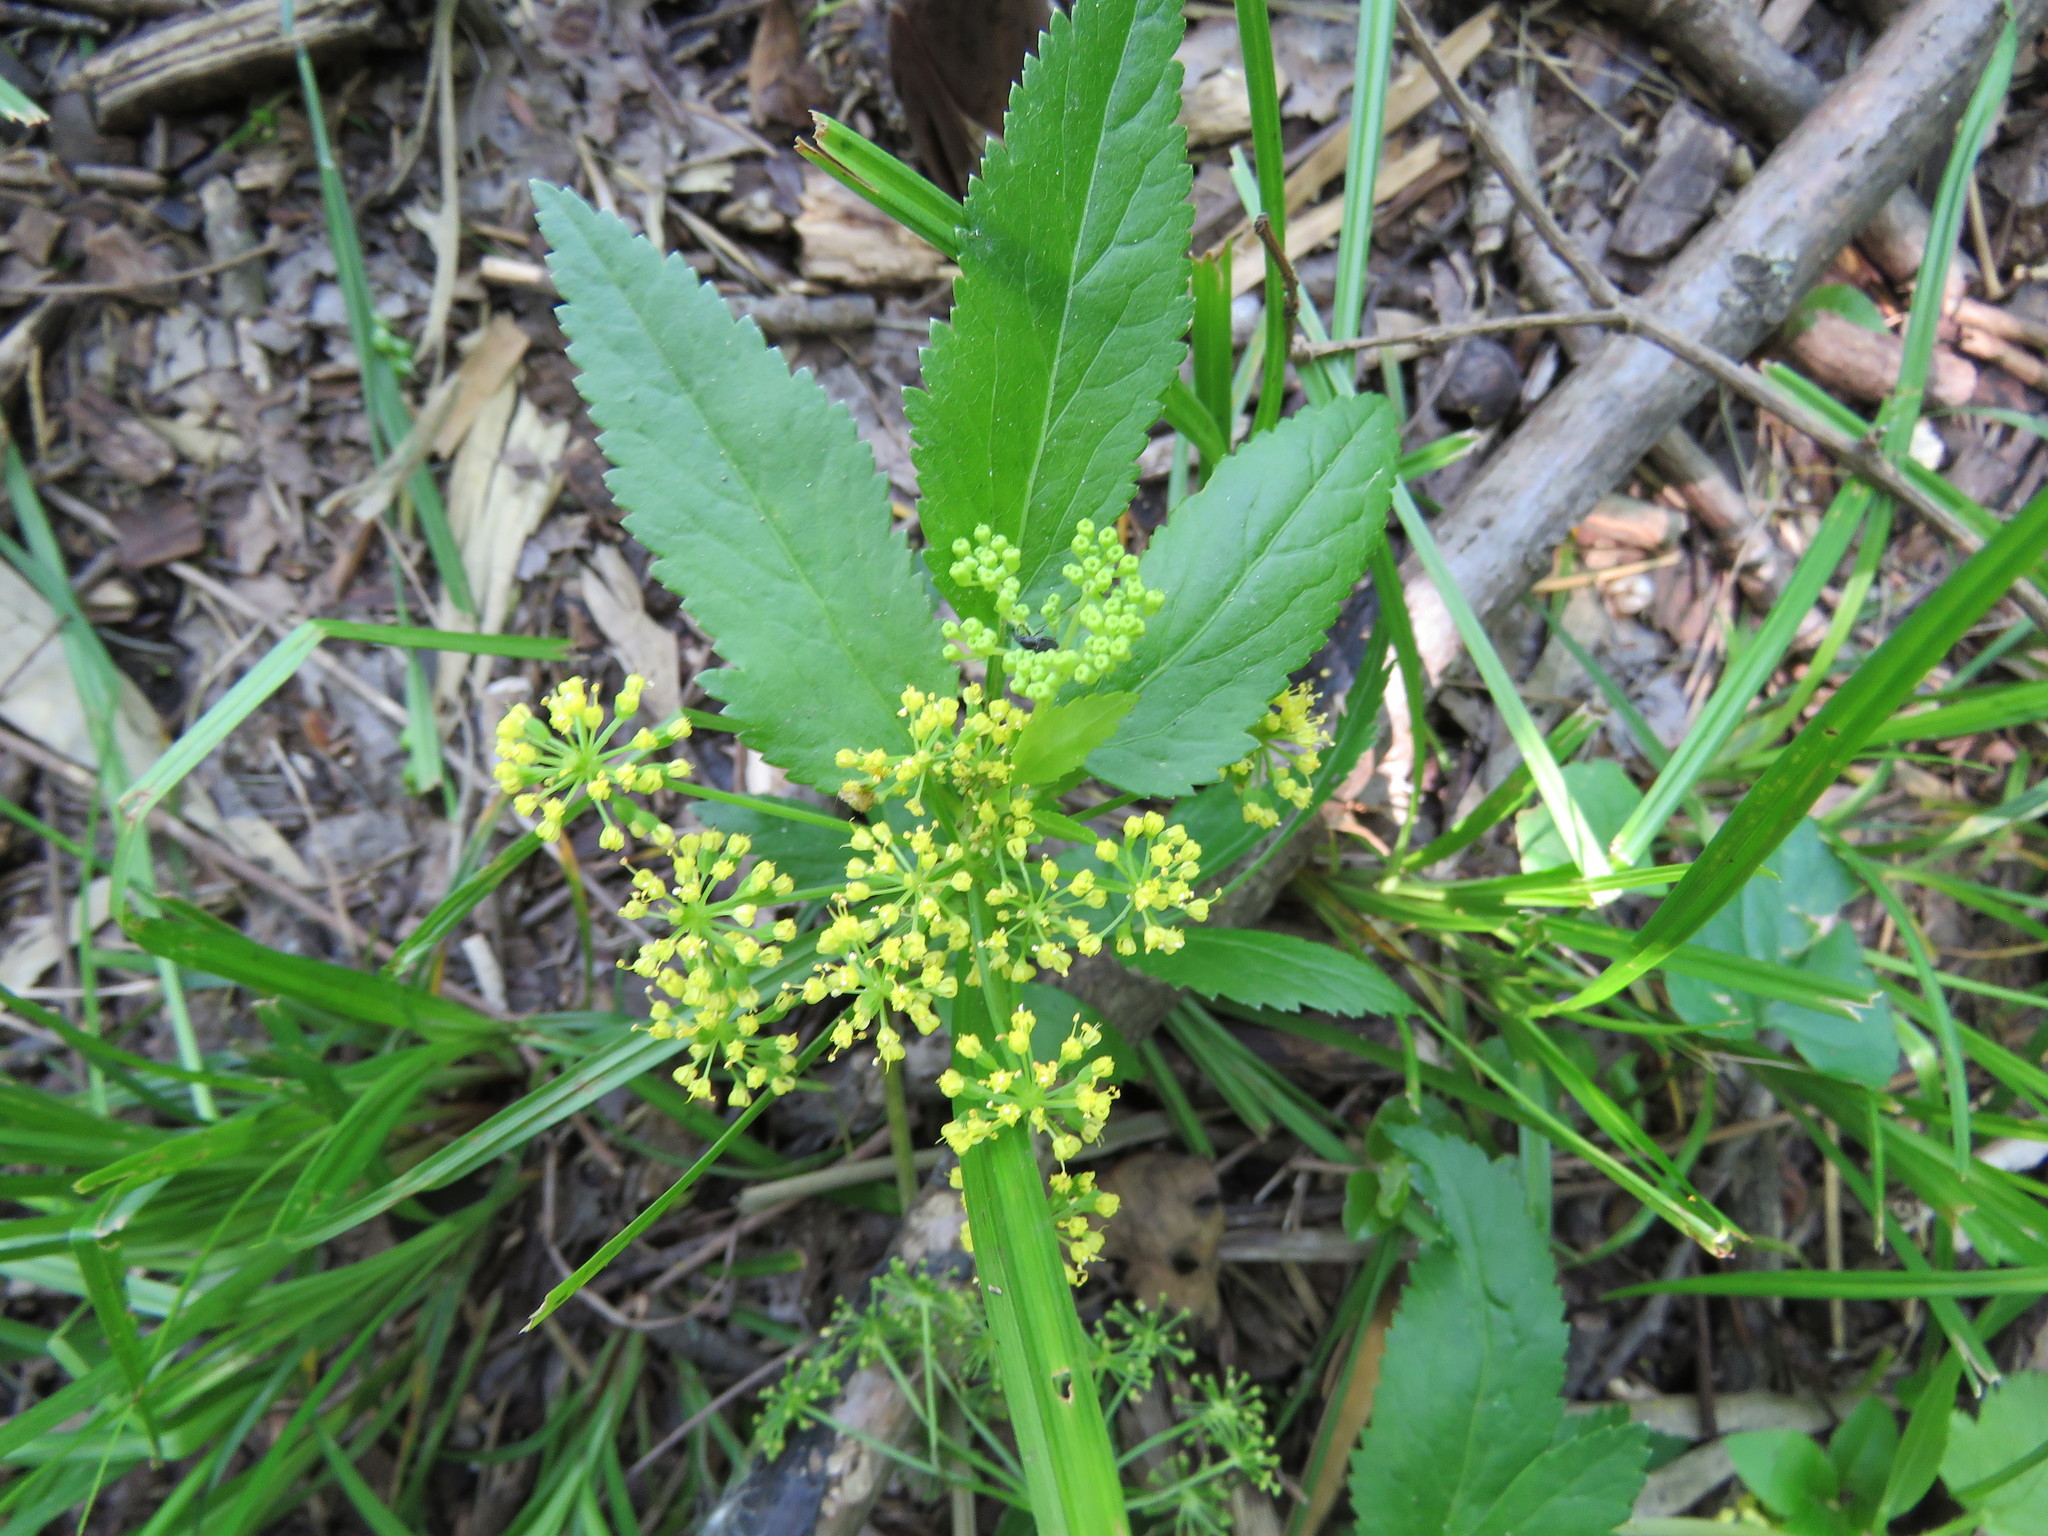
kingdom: Plantae
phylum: Tracheophyta
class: Magnoliopsida
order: Apiales
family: Apiaceae
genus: Zizia
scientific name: Zizia aurea
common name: Golden alexanders
